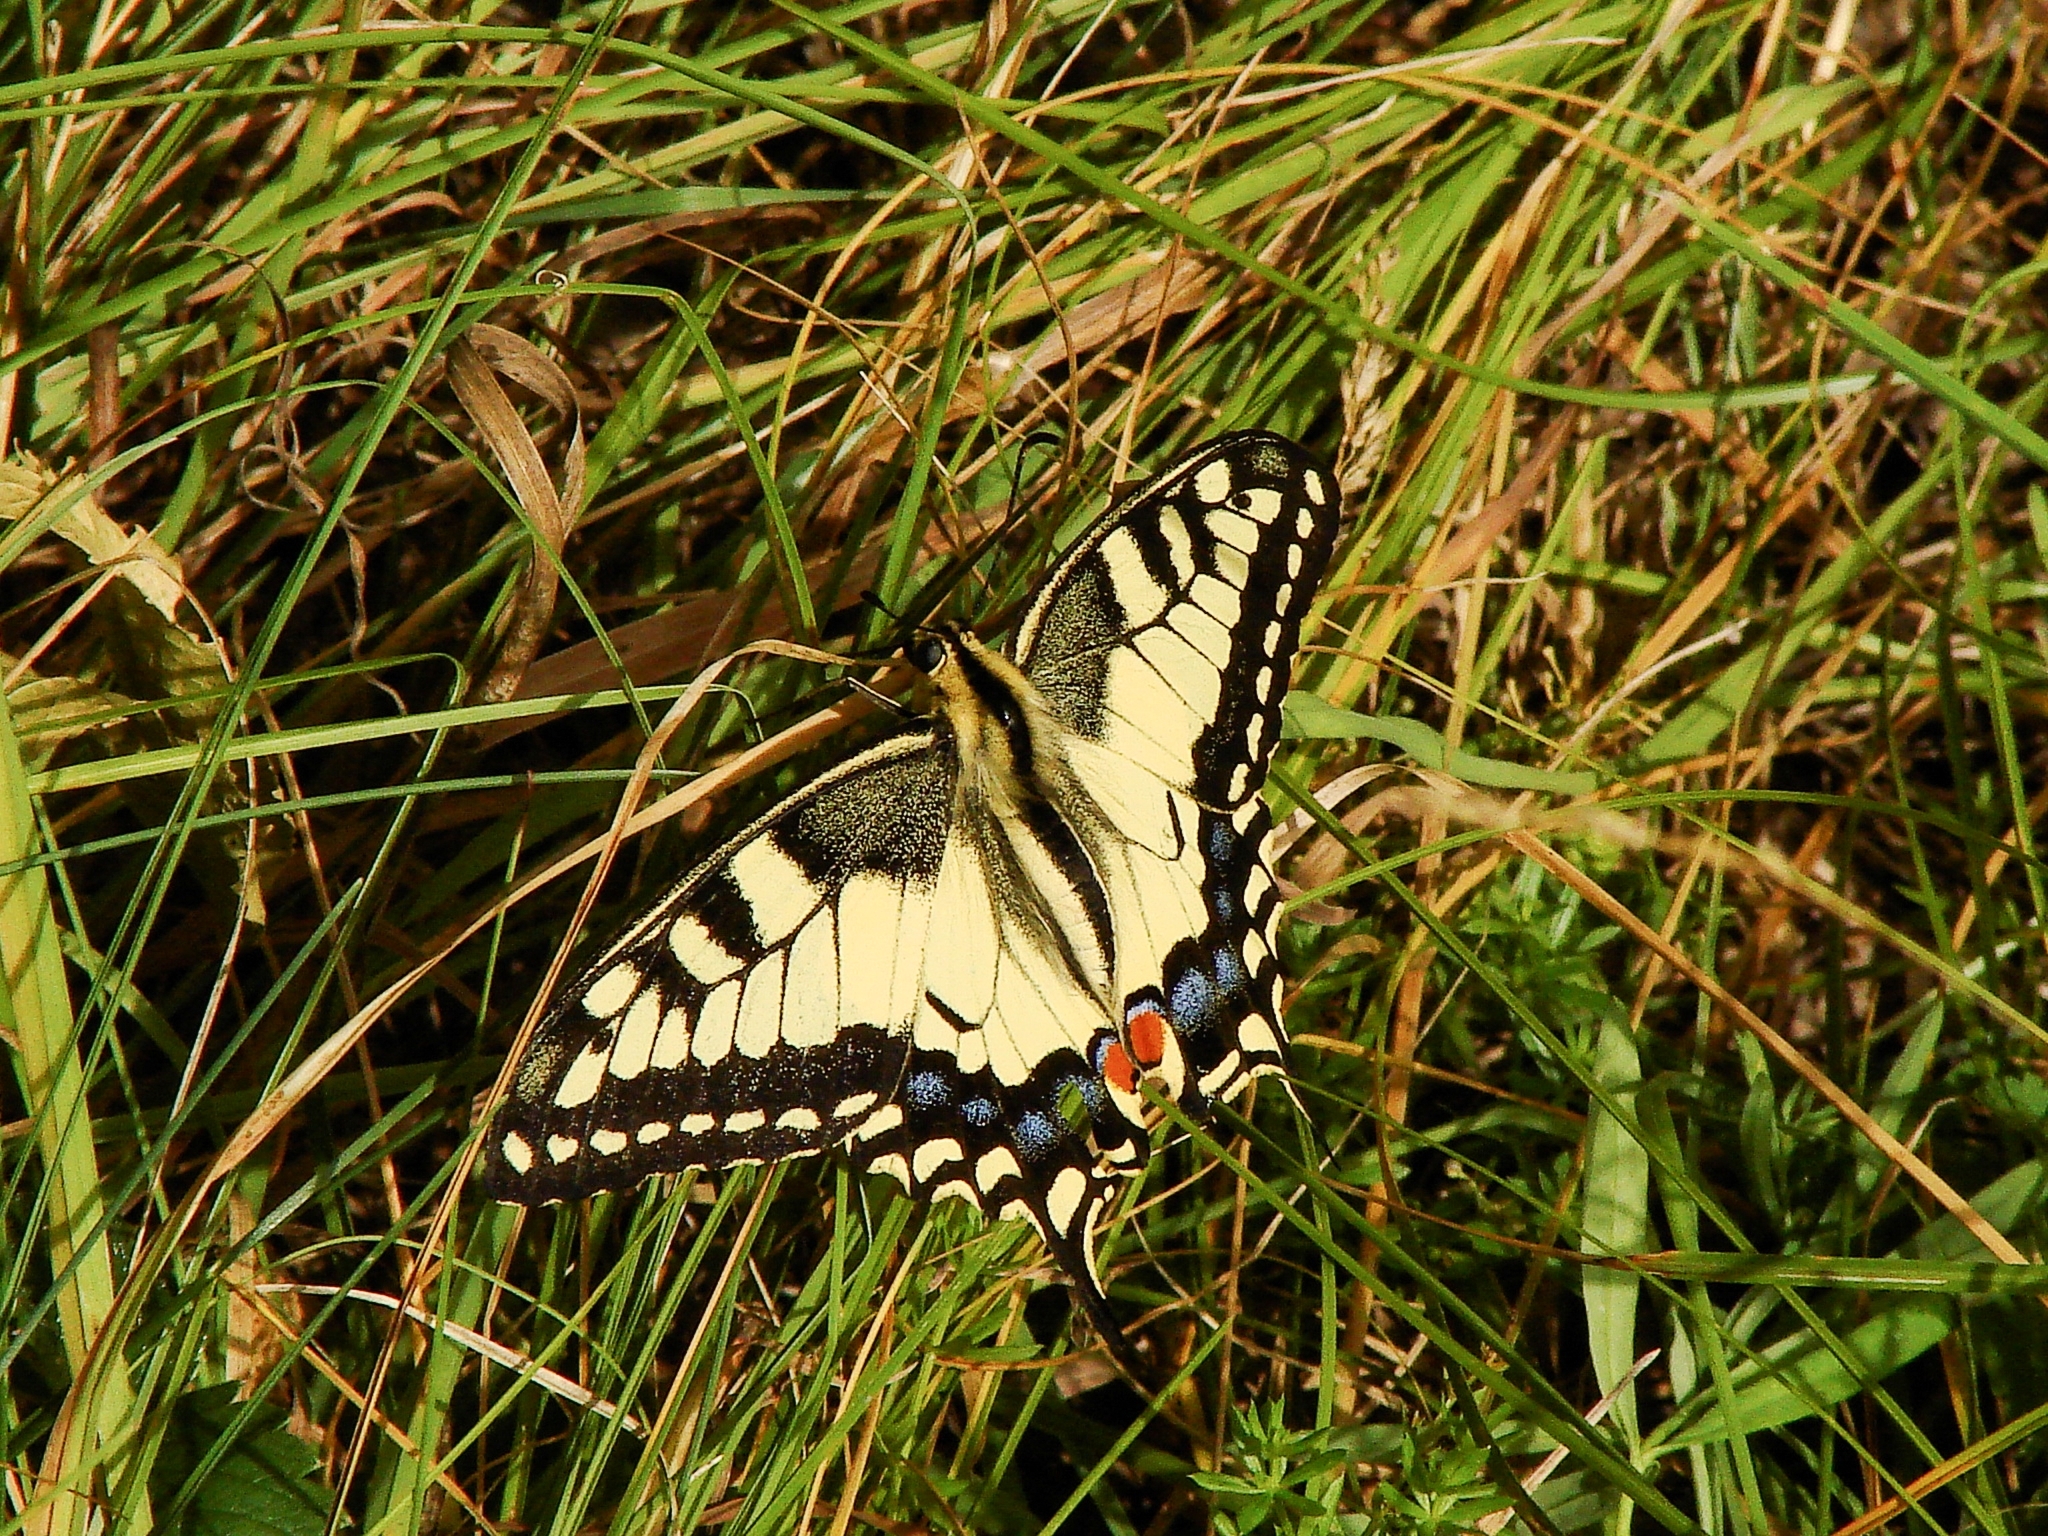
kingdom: Animalia
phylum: Arthropoda
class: Insecta
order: Lepidoptera
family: Papilionidae
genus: Papilio
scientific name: Papilio machaon
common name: Swallowtail
